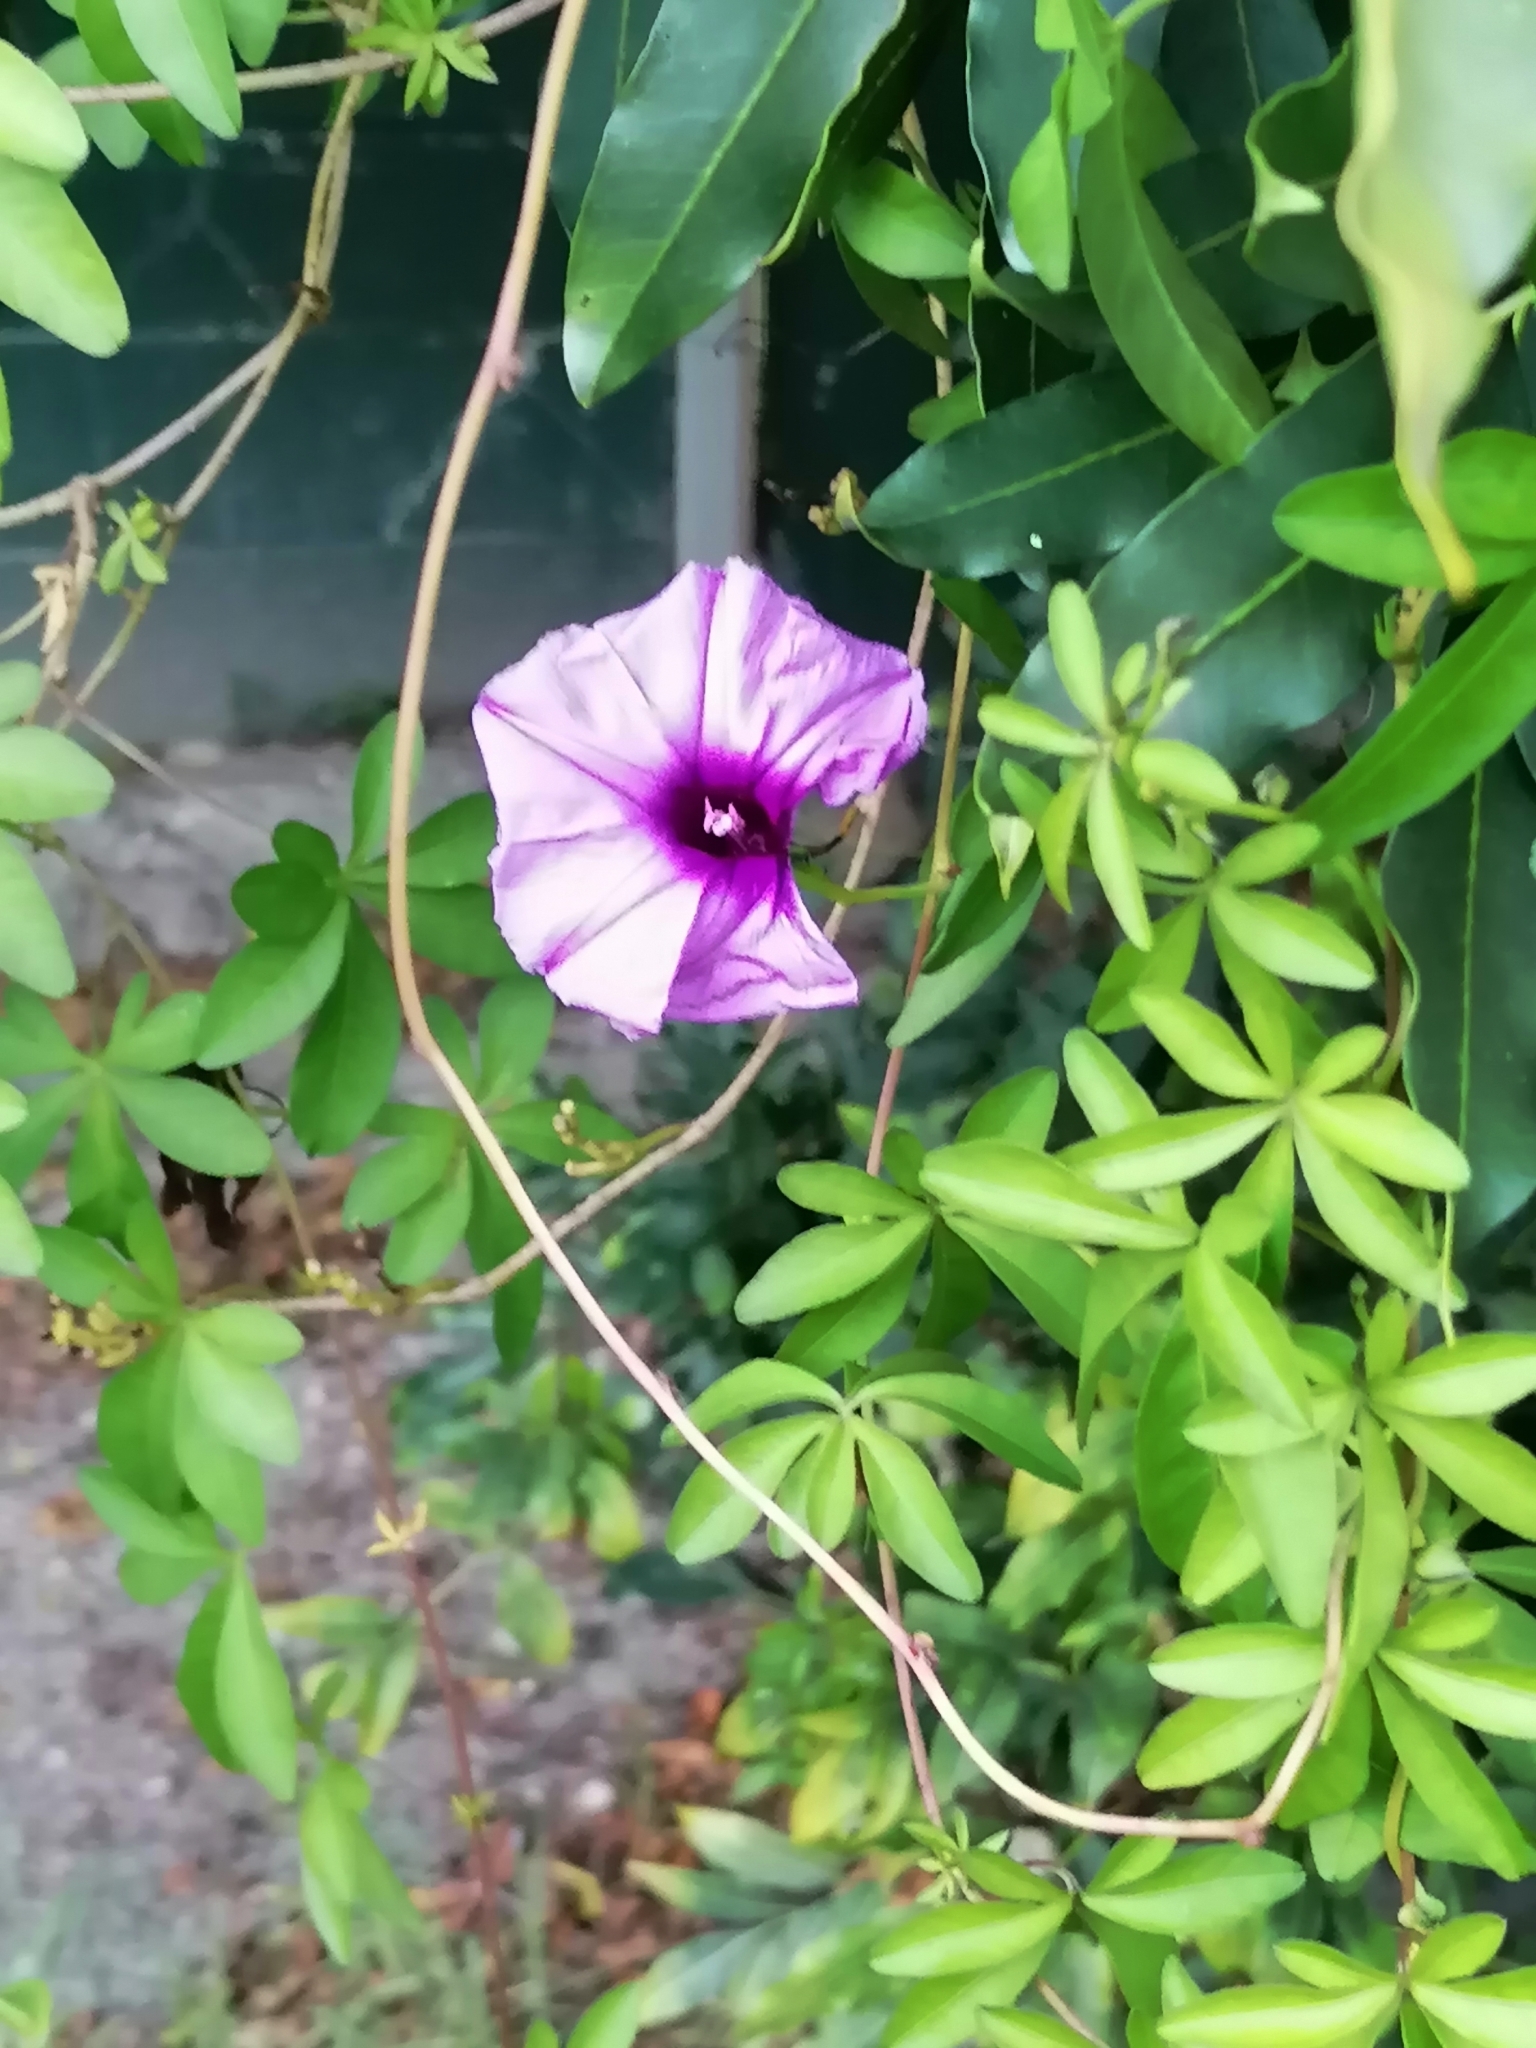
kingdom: Plantae
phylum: Tracheophyta
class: Magnoliopsida
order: Solanales
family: Convolvulaceae
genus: Ipomoea
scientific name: Ipomoea cairica
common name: Mile a minute vine
